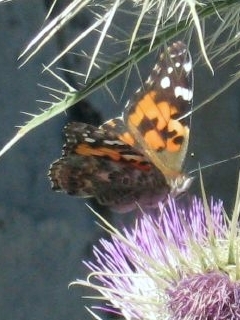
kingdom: Animalia
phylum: Arthropoda
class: Insecta
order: Lepidoptera
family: Nymphalidae
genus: Vanessa
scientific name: Vanessa cardui
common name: Painted lady
